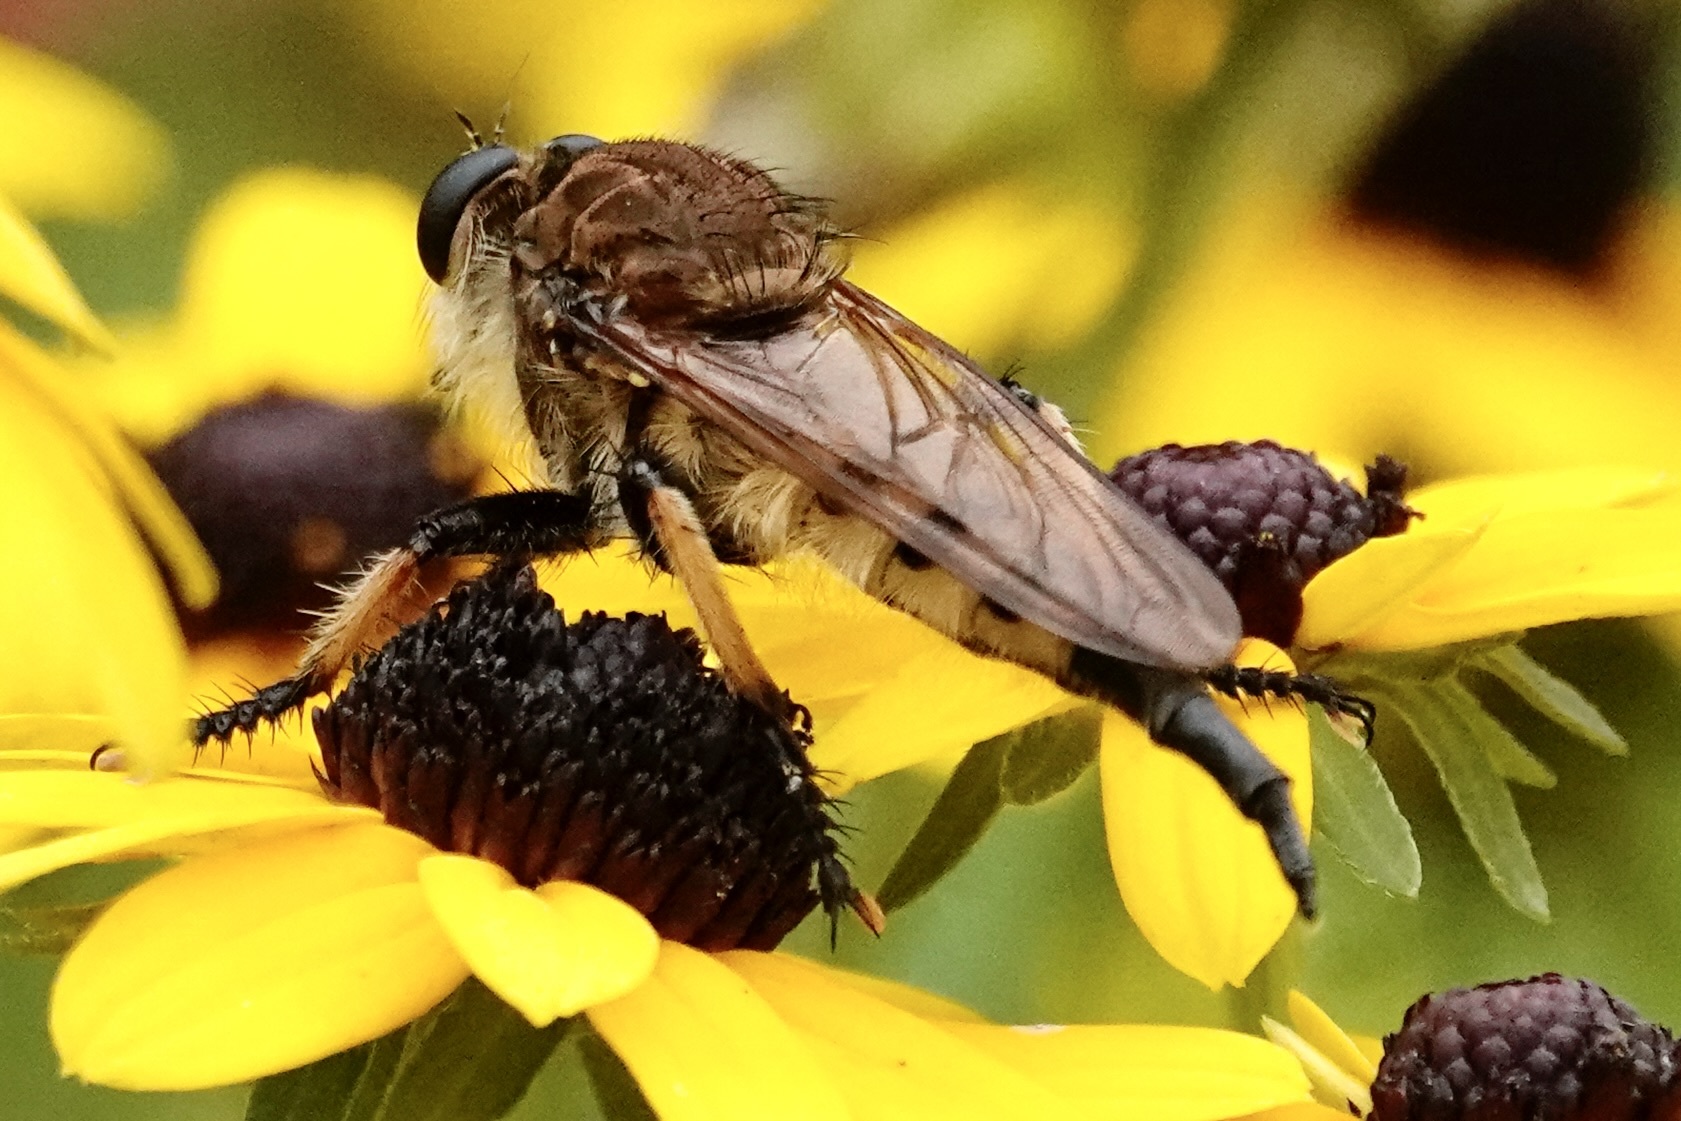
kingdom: Animalia
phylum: Arthropoda
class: Insecta
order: Diptera
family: Asilidae
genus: Promachus
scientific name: Promachus rufipes
